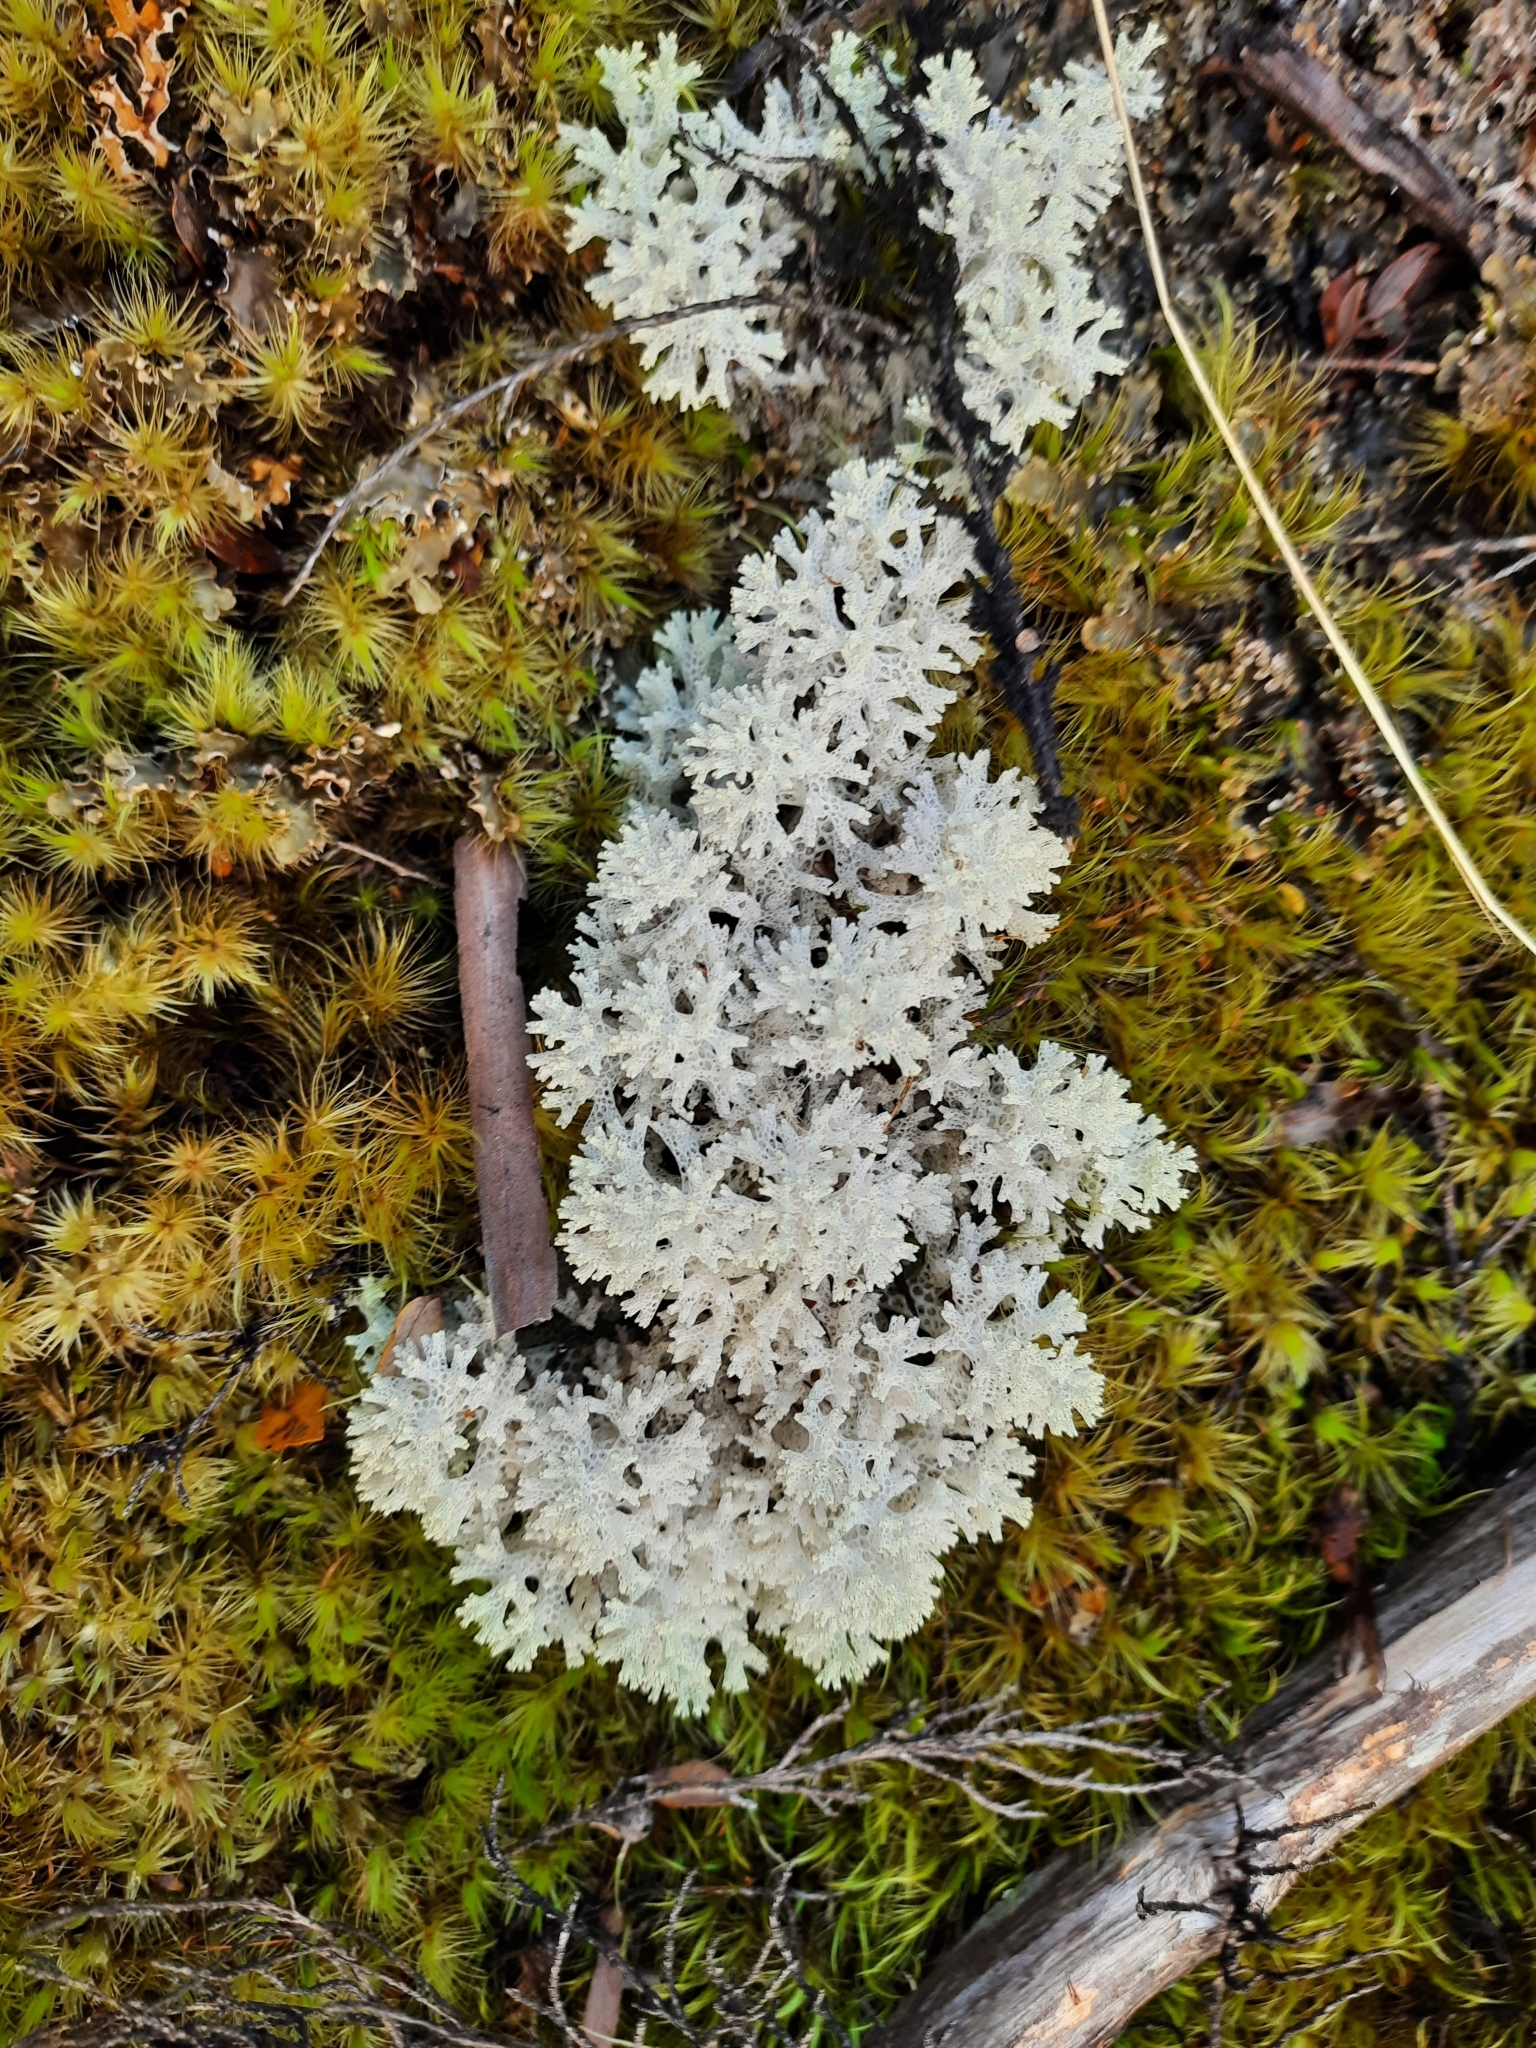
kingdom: Fungi
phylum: Ascomycota
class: Lecanoromycetes
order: Lecanorales
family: Cladoniaceae
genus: Pulchrocladia
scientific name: Pulchrocladia retipora
